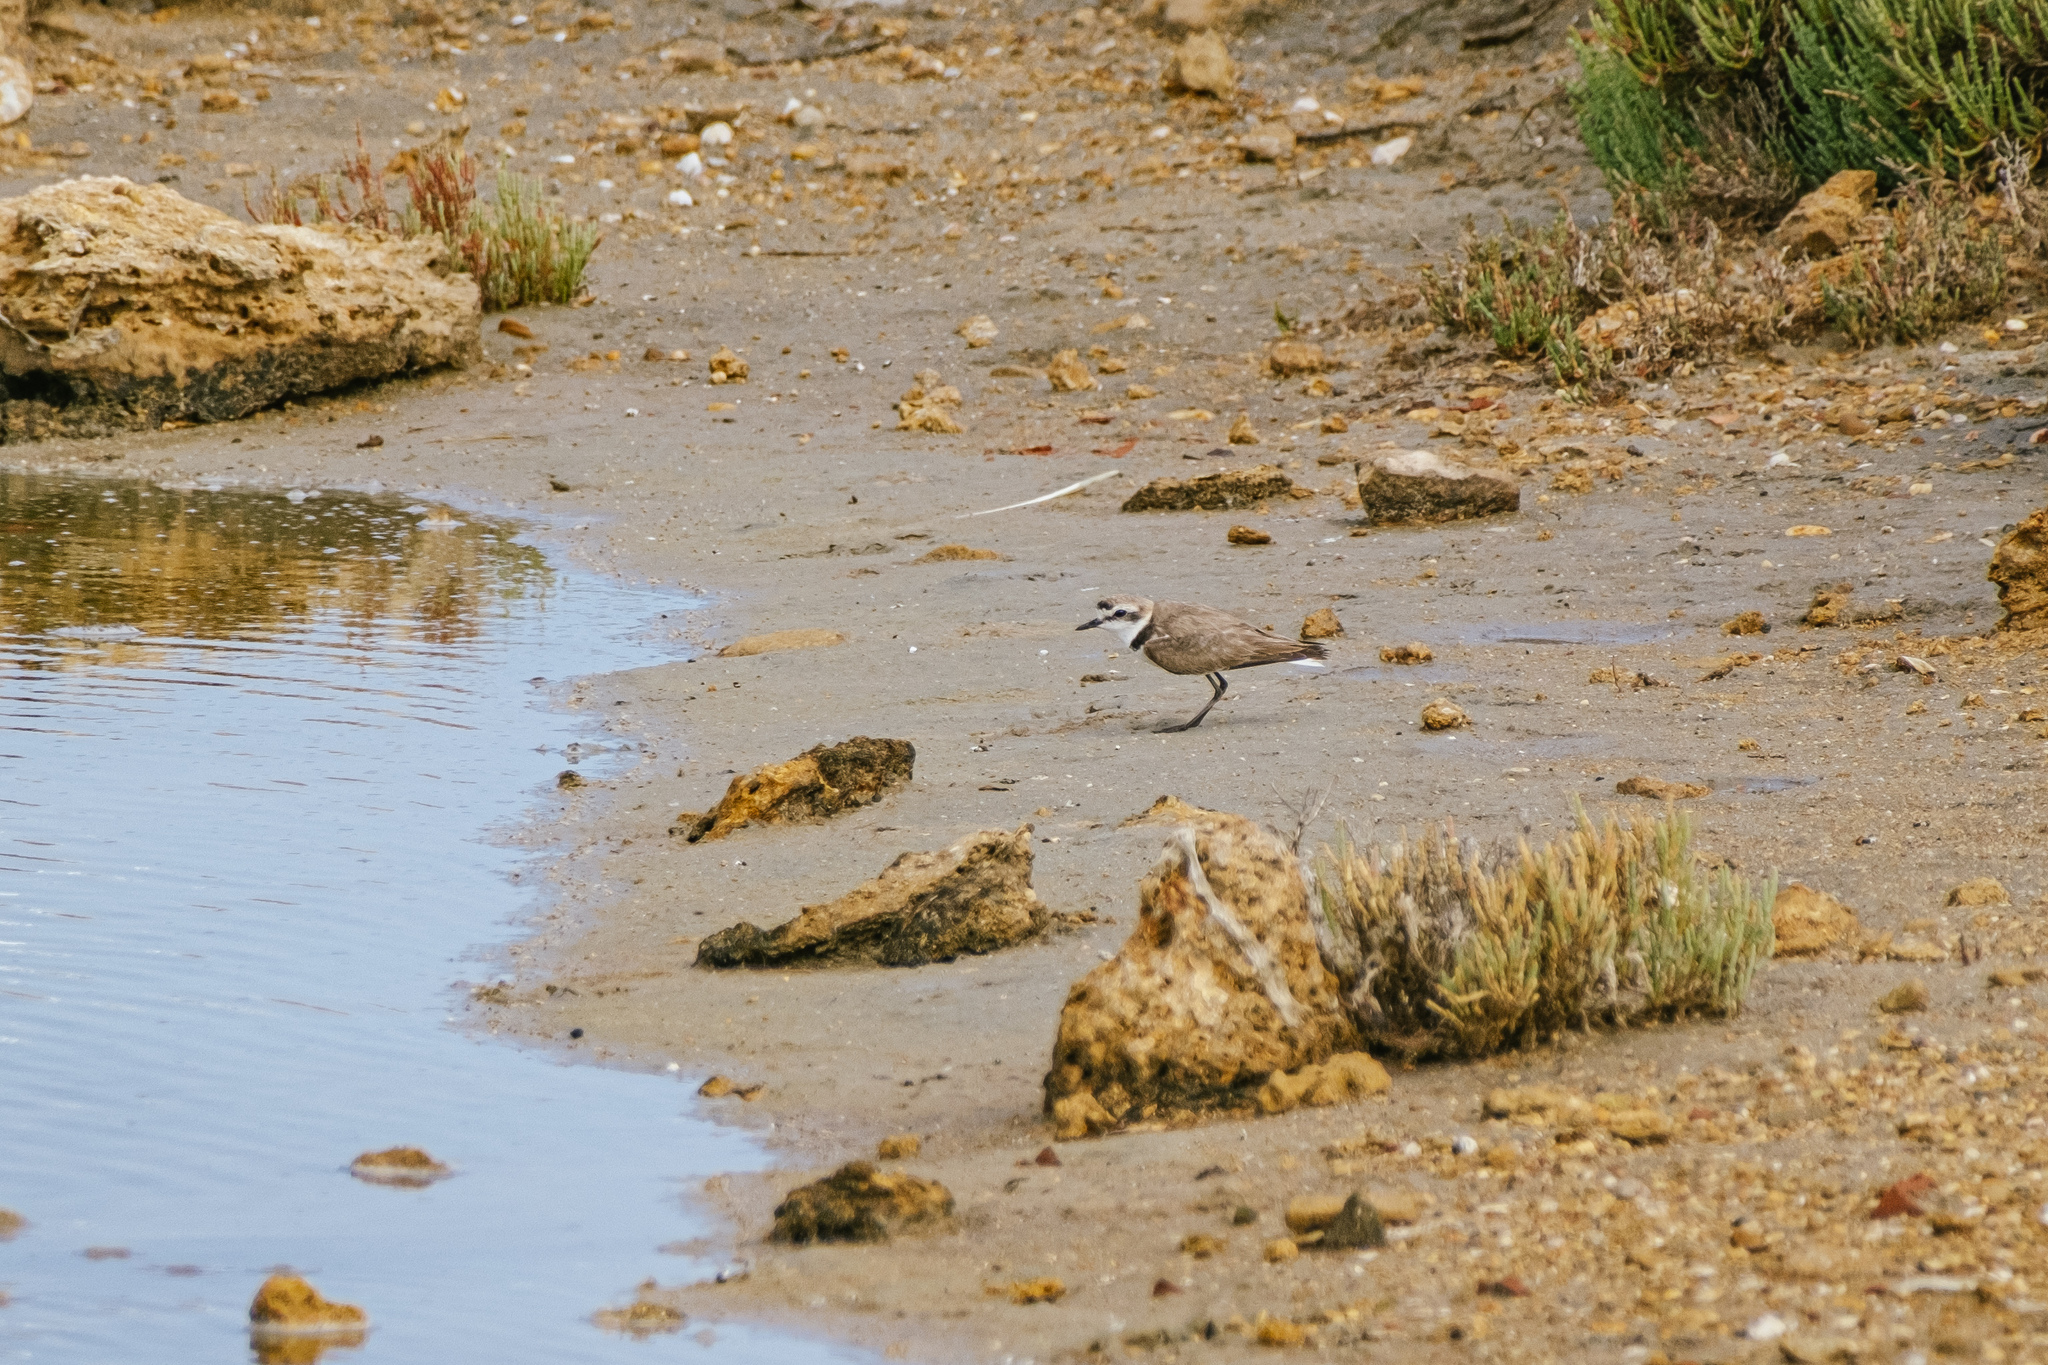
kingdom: Animalia
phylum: Chordata
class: Aves
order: Charadriiformes
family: Charadriidae
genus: Charadrius
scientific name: Charadrius alexandrinus
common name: Kentish plover
